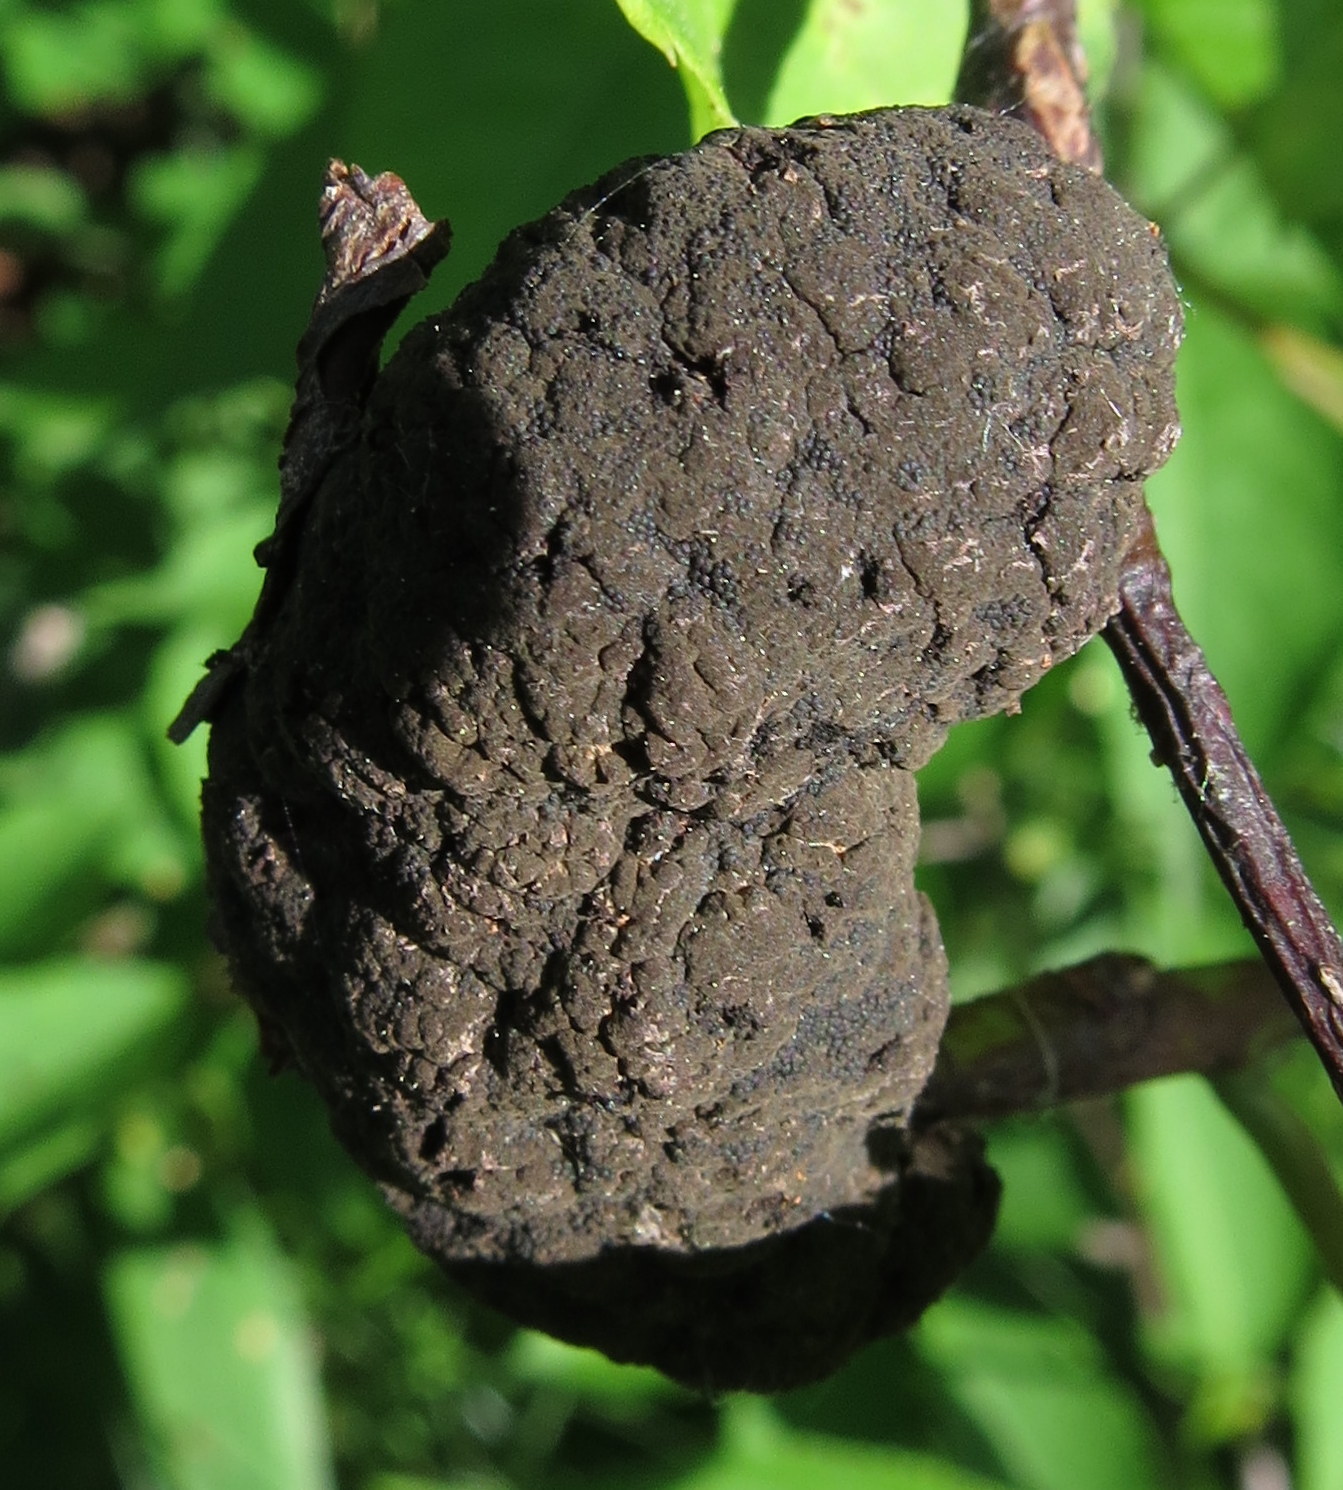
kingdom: Fungi
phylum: Ascomycota
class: Dothideomycetes
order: Venturiales
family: Venturiaceae
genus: Apiosporina
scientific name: Apiosporina morbosa
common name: Black knot
